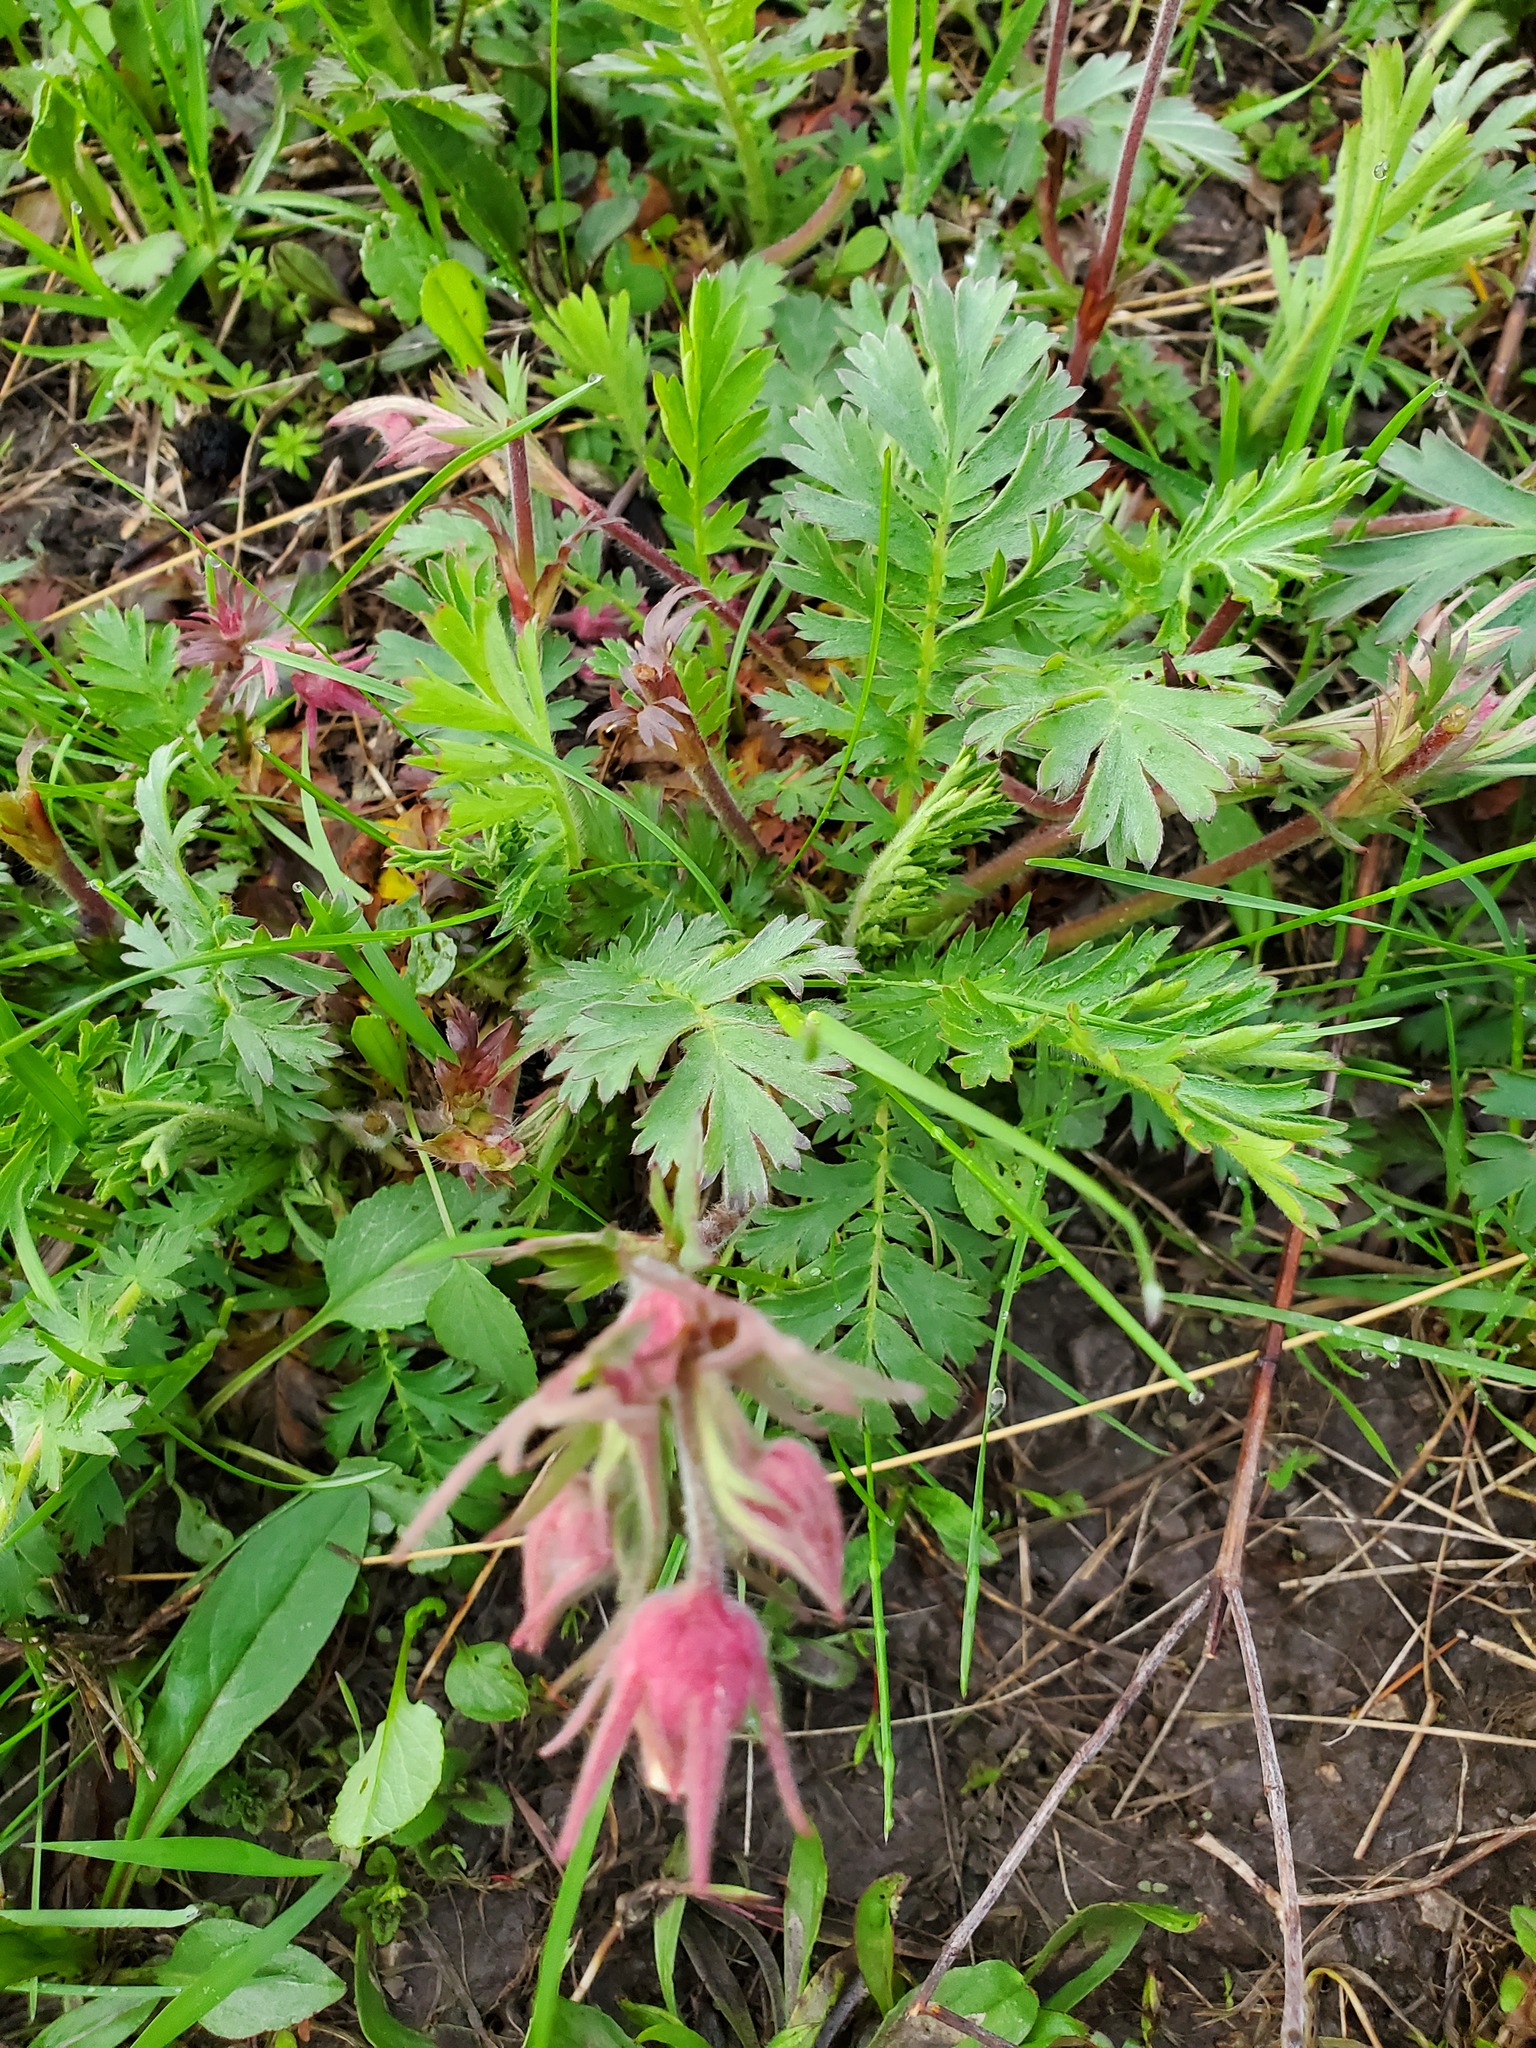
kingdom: Plantae
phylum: Tracheophyta
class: Magnoliopsida
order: Rosales
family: Rosaceae
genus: Geum
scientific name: Geum triflorum
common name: Old man's whiskers
